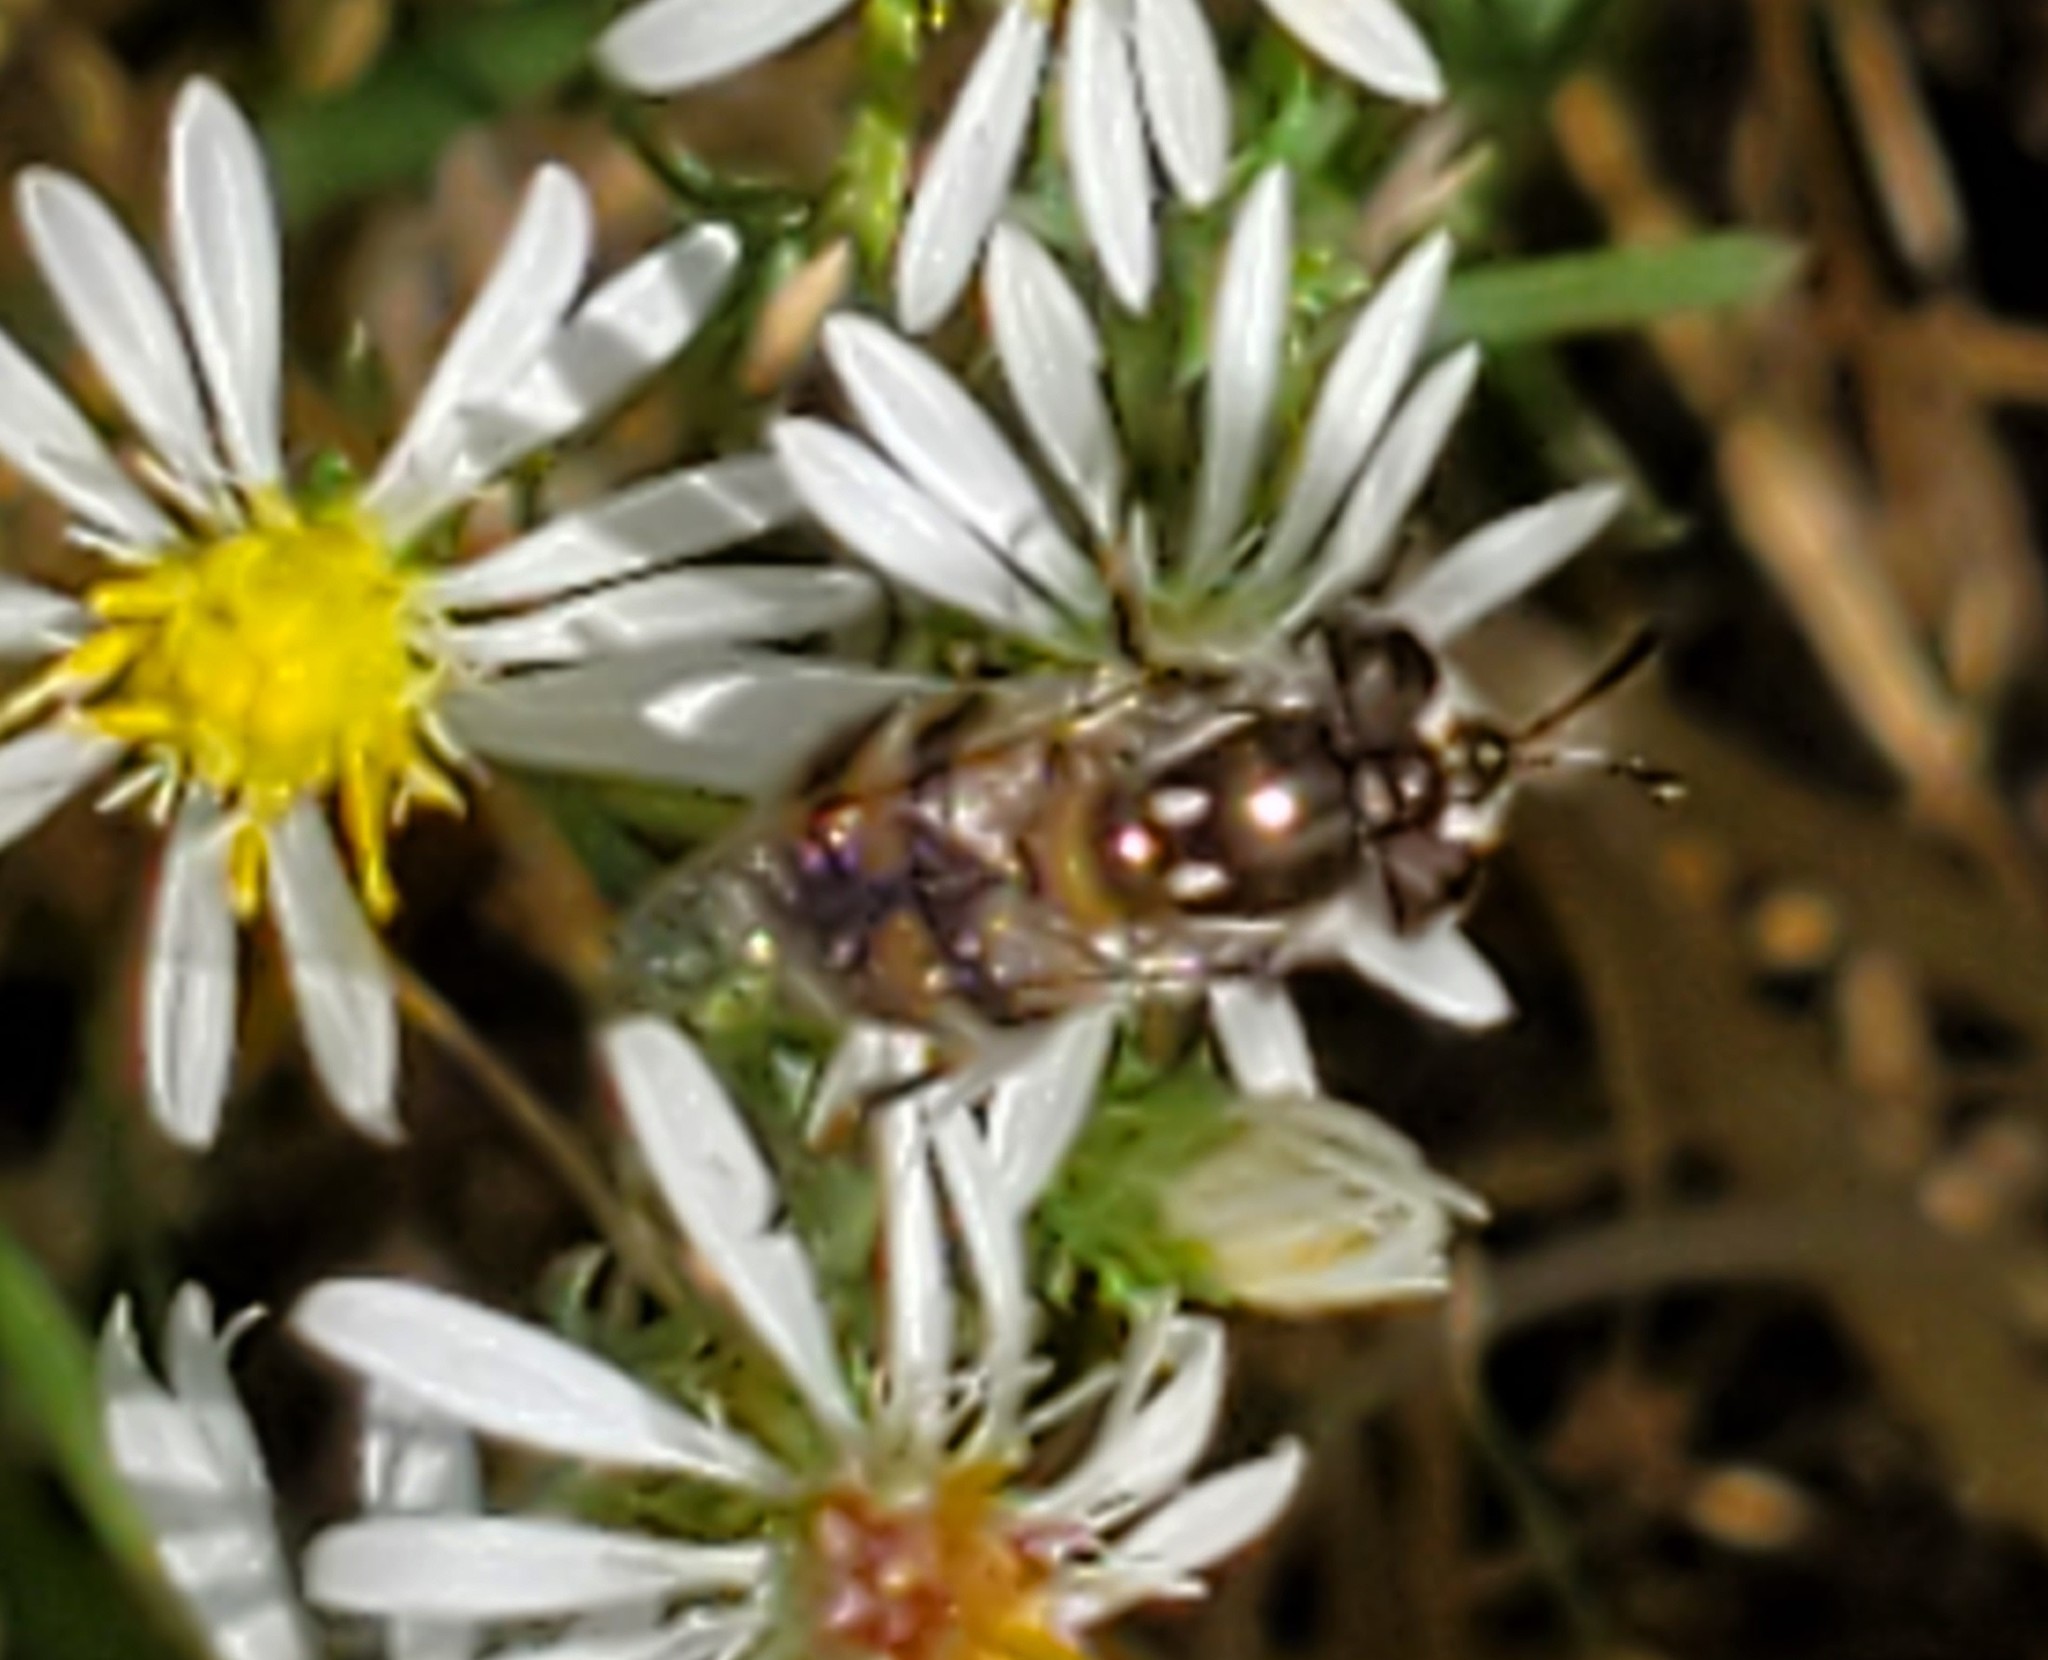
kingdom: Animalia
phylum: Arthropoda
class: Insecta
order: Diptera
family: Syrphidae
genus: Copestylum
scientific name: Copestylum marginatum
